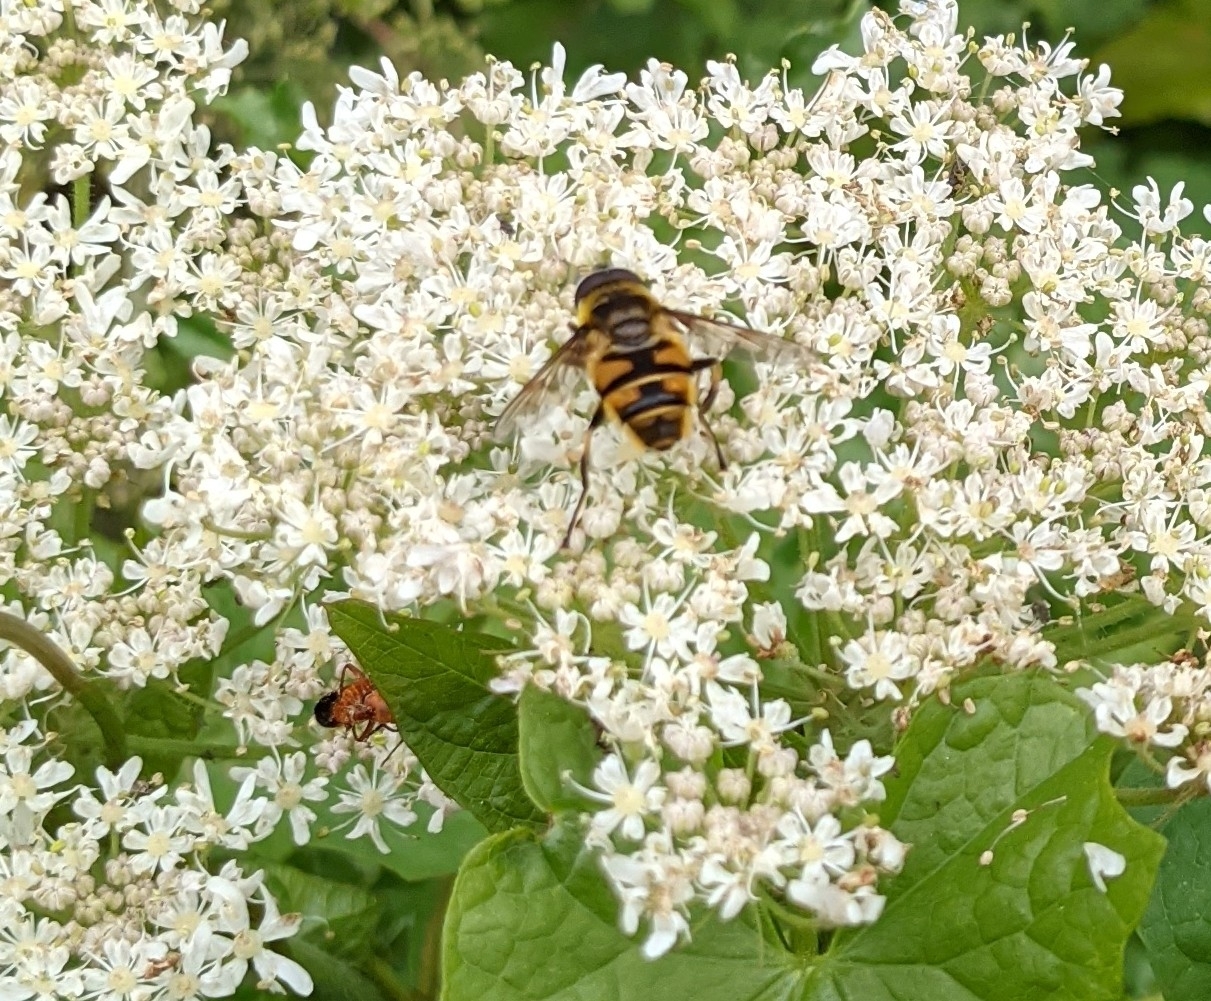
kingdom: Animalia
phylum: Arthropoda
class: Insecta
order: Diptera
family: Syrphidae
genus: Myathropa
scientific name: Myathropa florea
